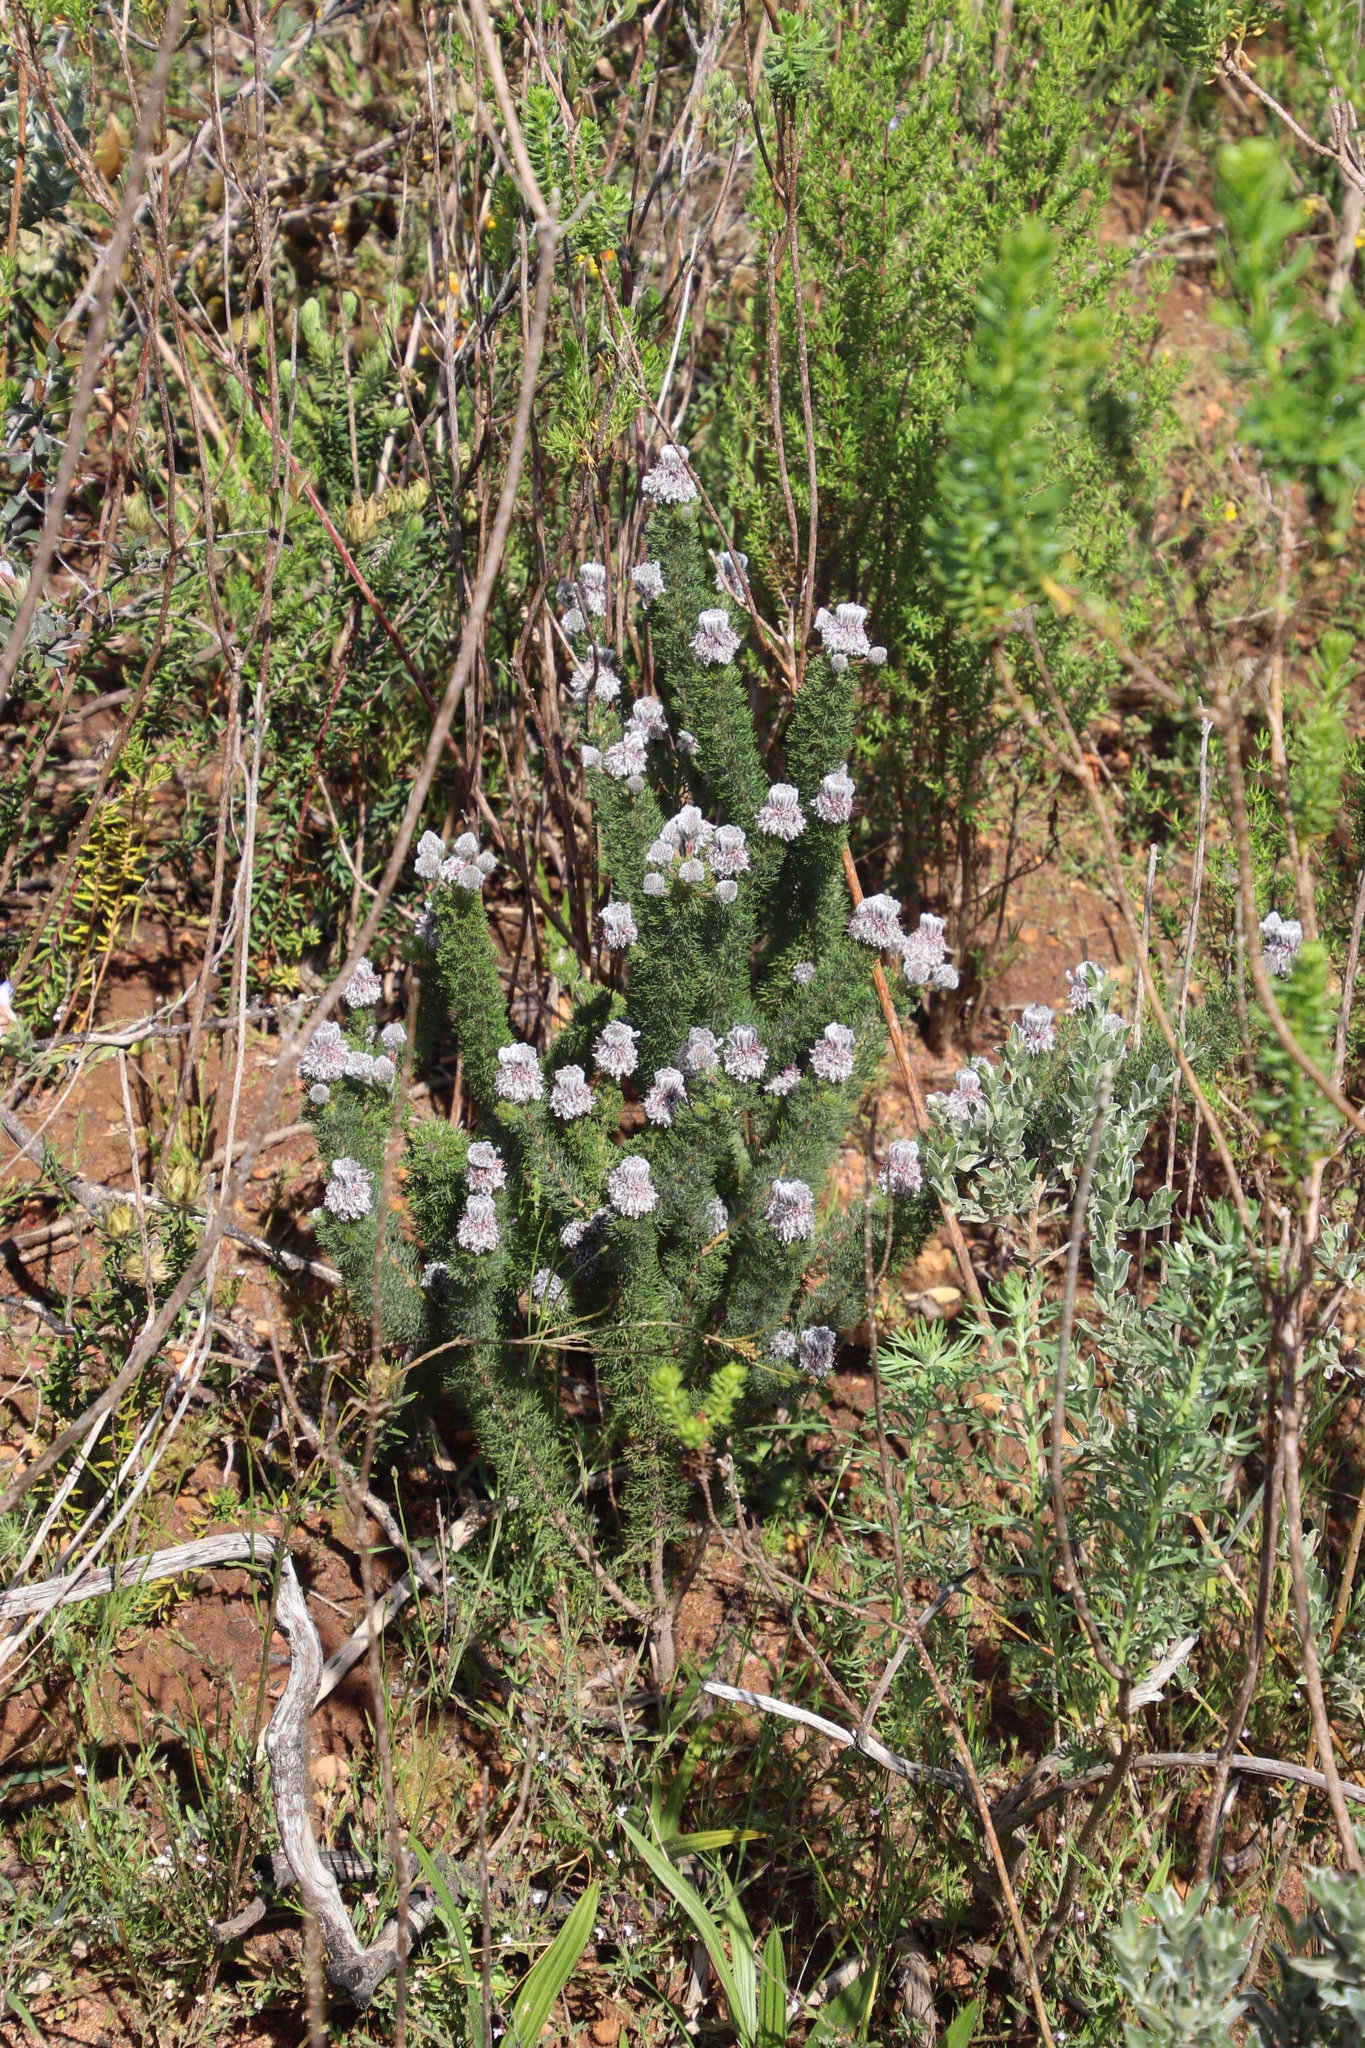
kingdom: Plantae
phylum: Tracheophyta
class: Magnoliopsida
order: Proteales
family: Proteaceae
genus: Serruria
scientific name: Serruria brownii
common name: Bottlebrush spiderhead
